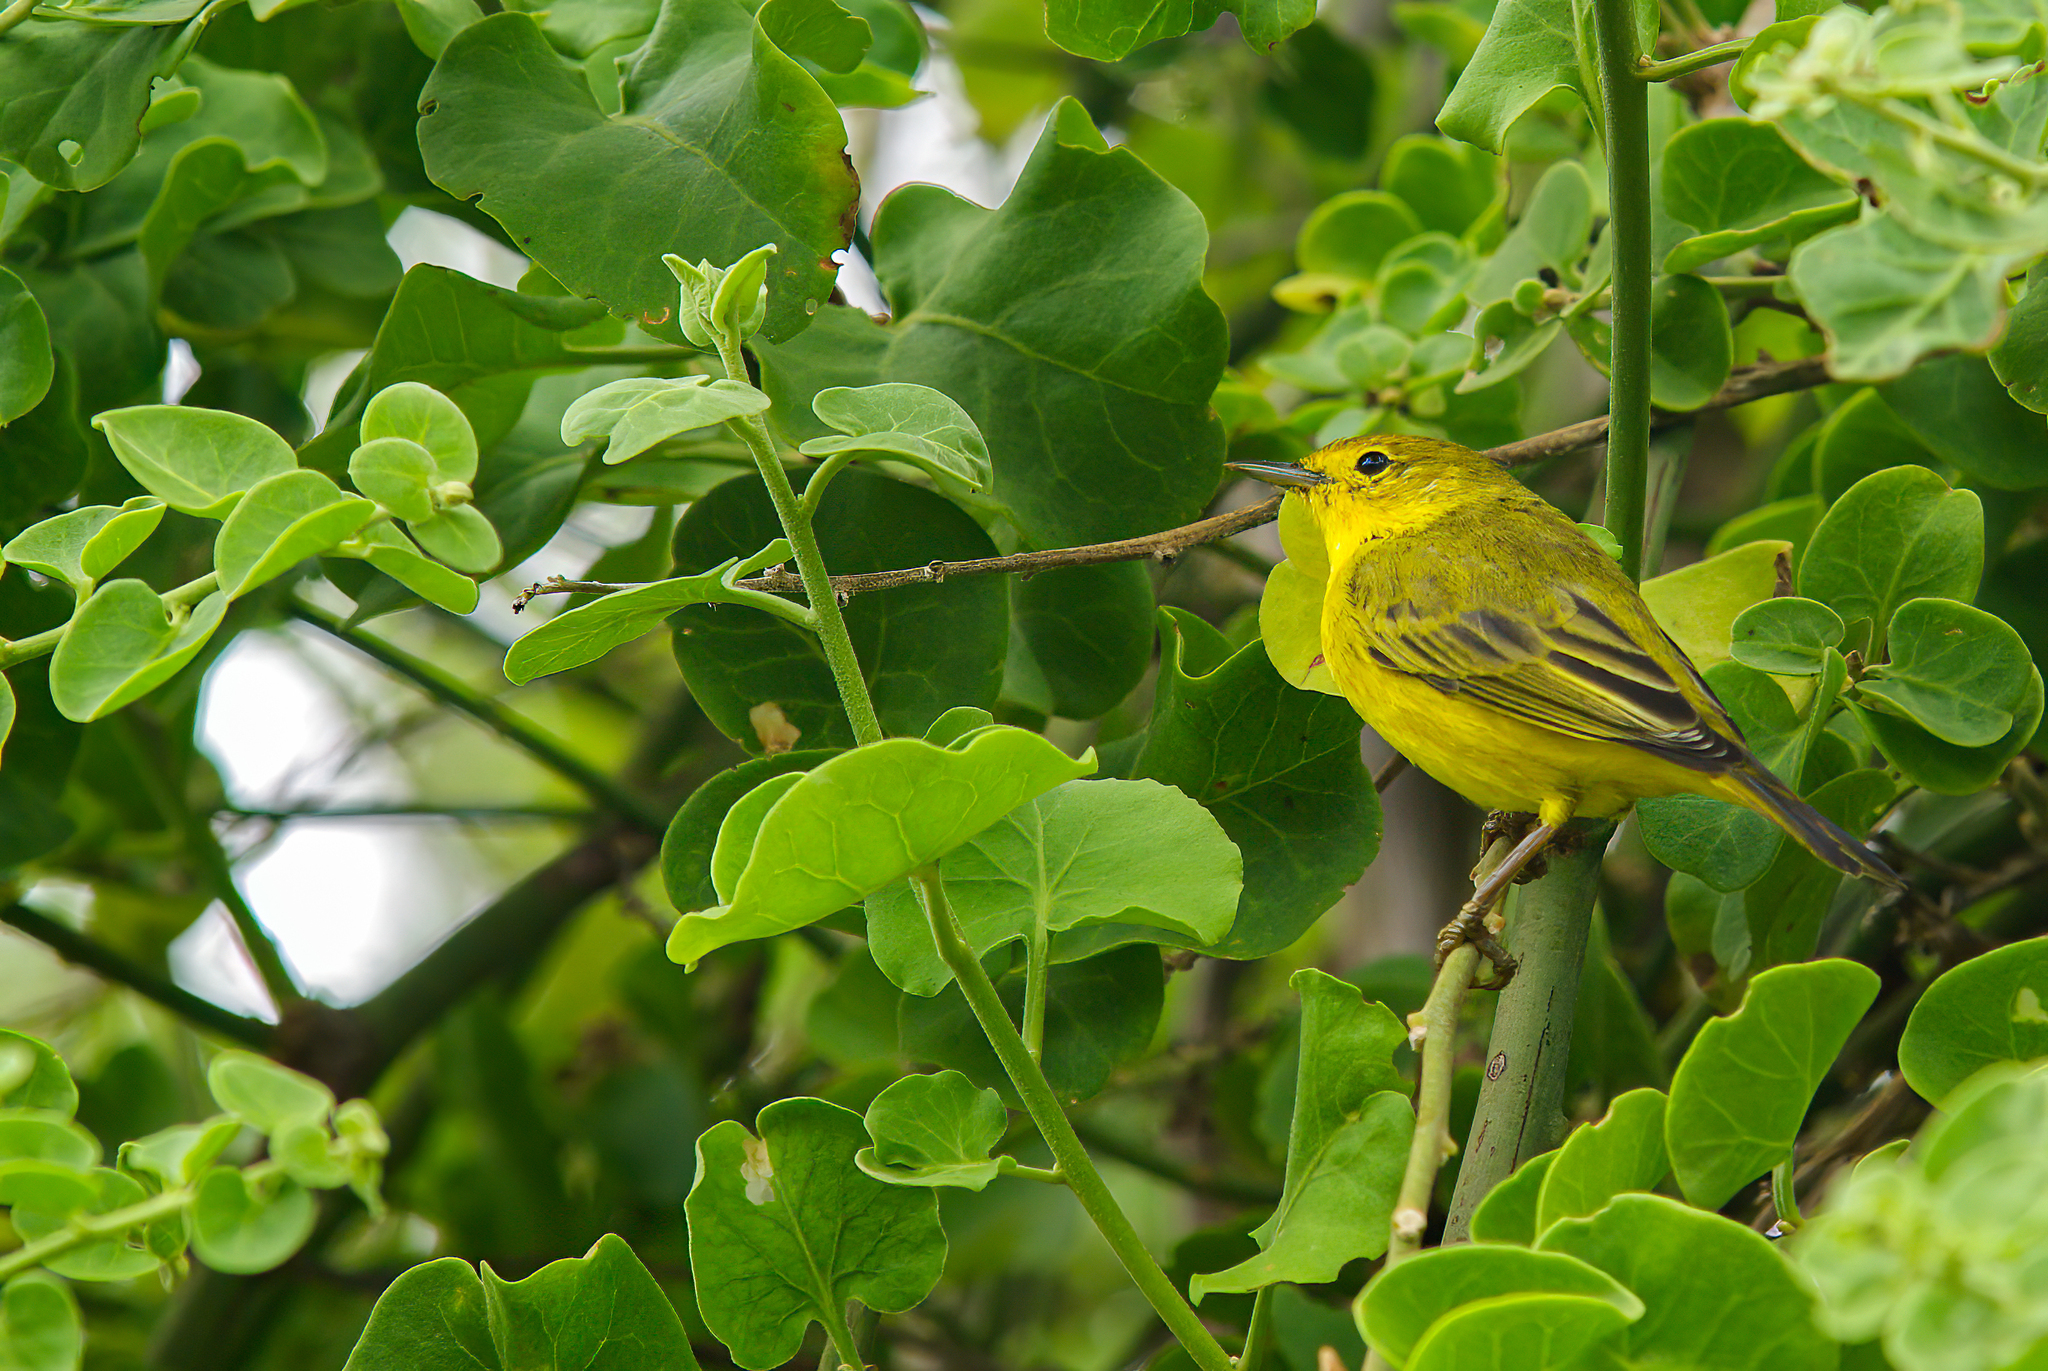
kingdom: Animalia
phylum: Chordata
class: Aves
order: Passeriformes
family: Parulidae
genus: Setophaga
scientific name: Setophaga petechia
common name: Yellow warbler
